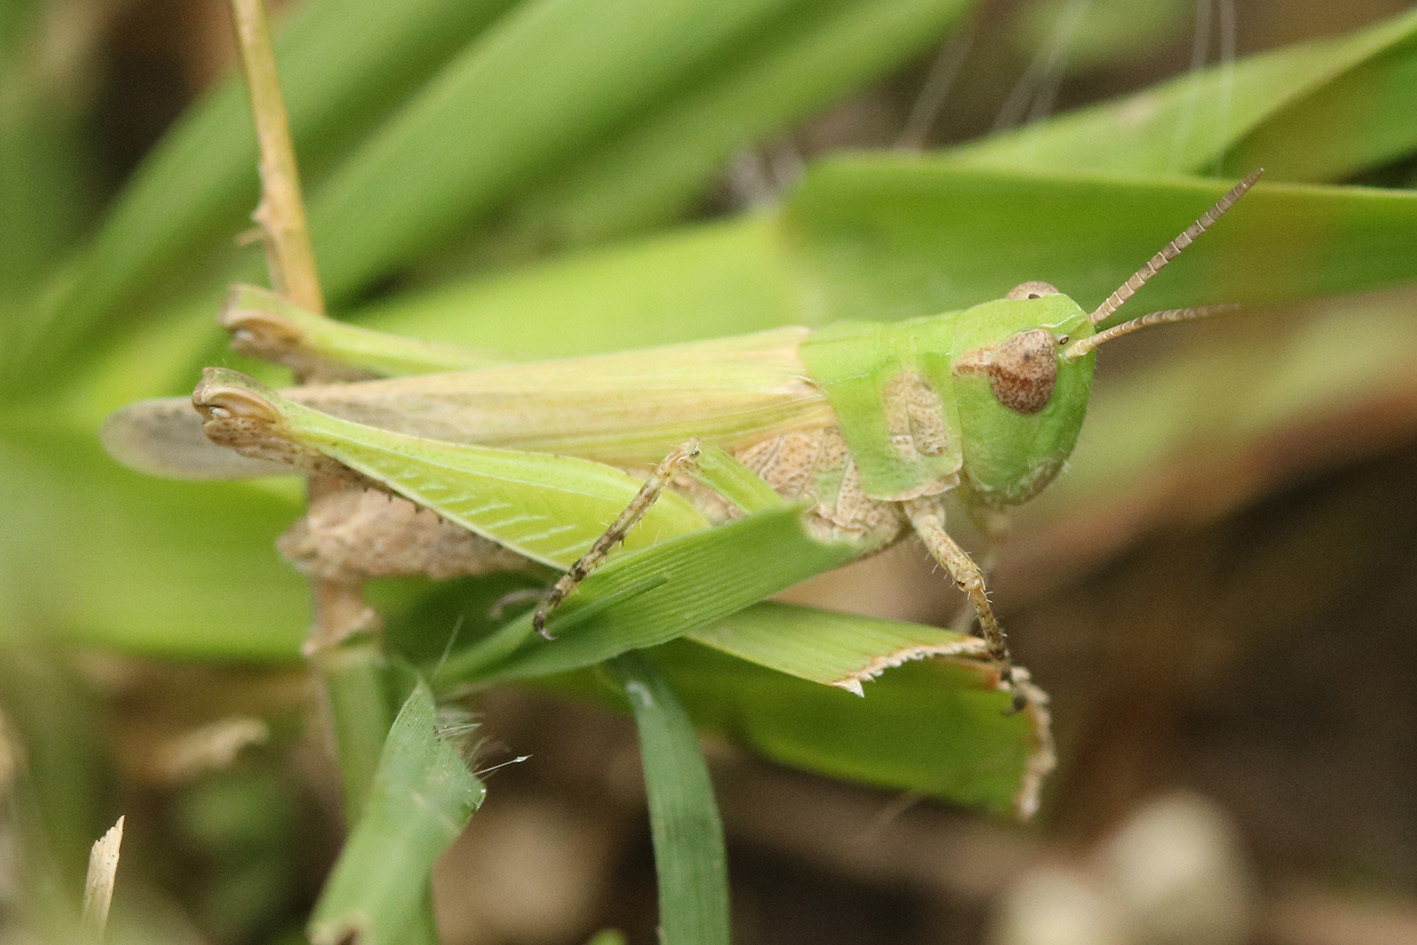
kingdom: Animalia
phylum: Arthropoda
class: Insecta
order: Orthoptera
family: Acrididae
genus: Orphulella
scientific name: Orphulella punctata
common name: Slant-faced grasshopper
